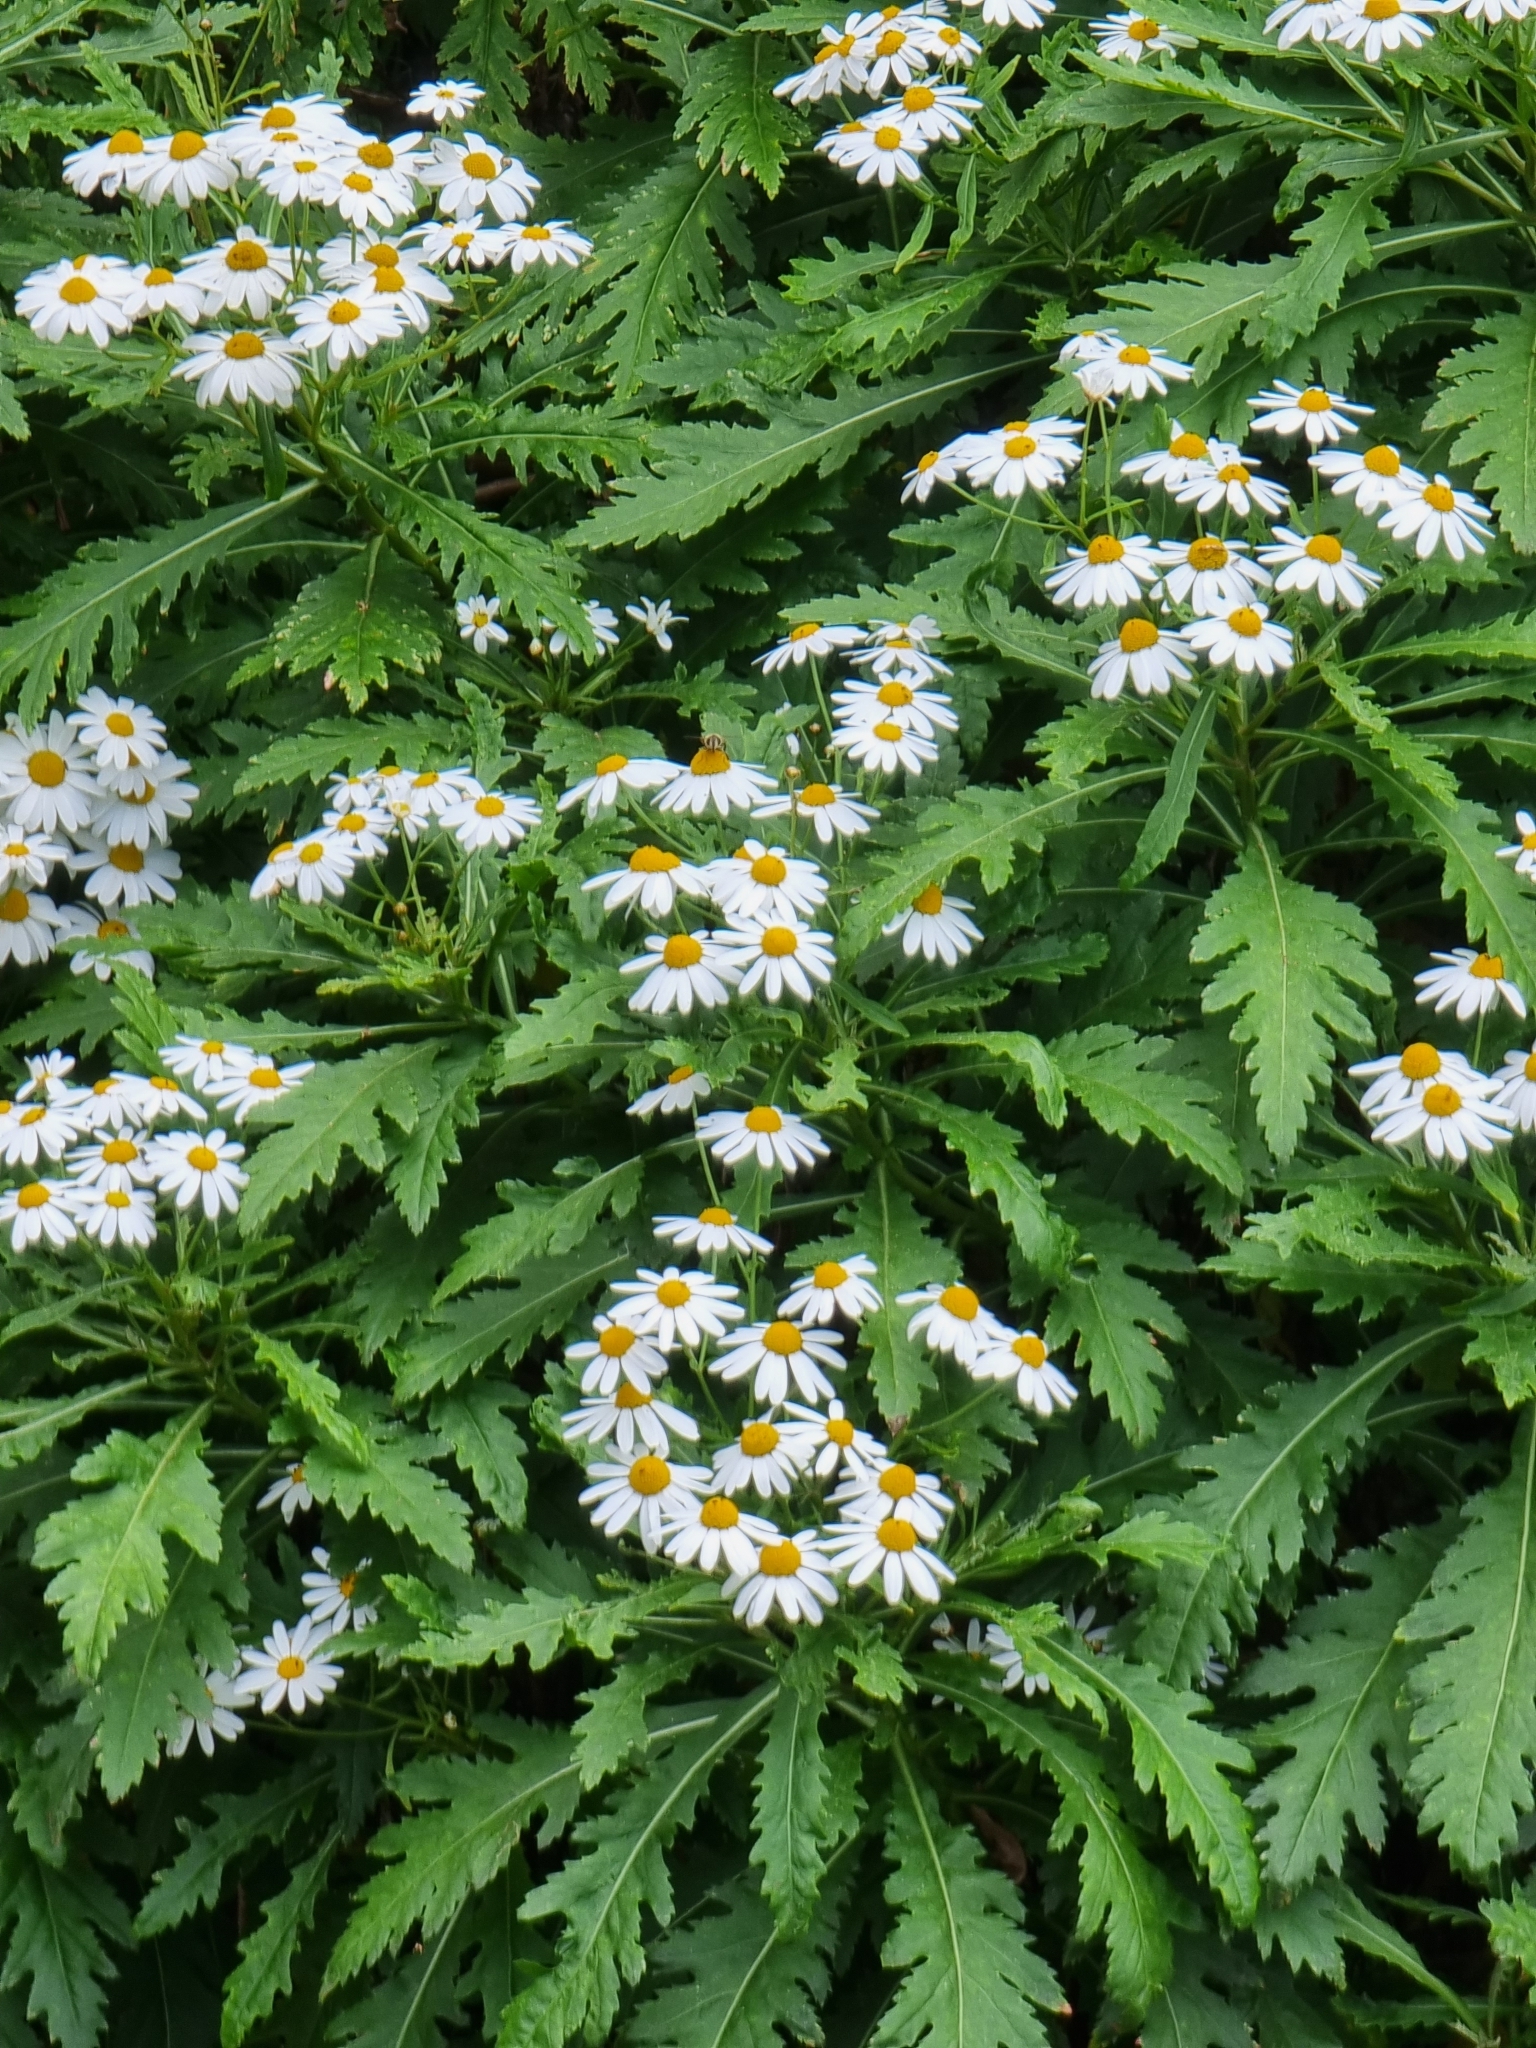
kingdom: Plantae
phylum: Tracheophyta
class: Magnoliopsida
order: Asterales
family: Asteraceae
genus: Argyranthemum
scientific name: Argyranthemum pinnatifidum
